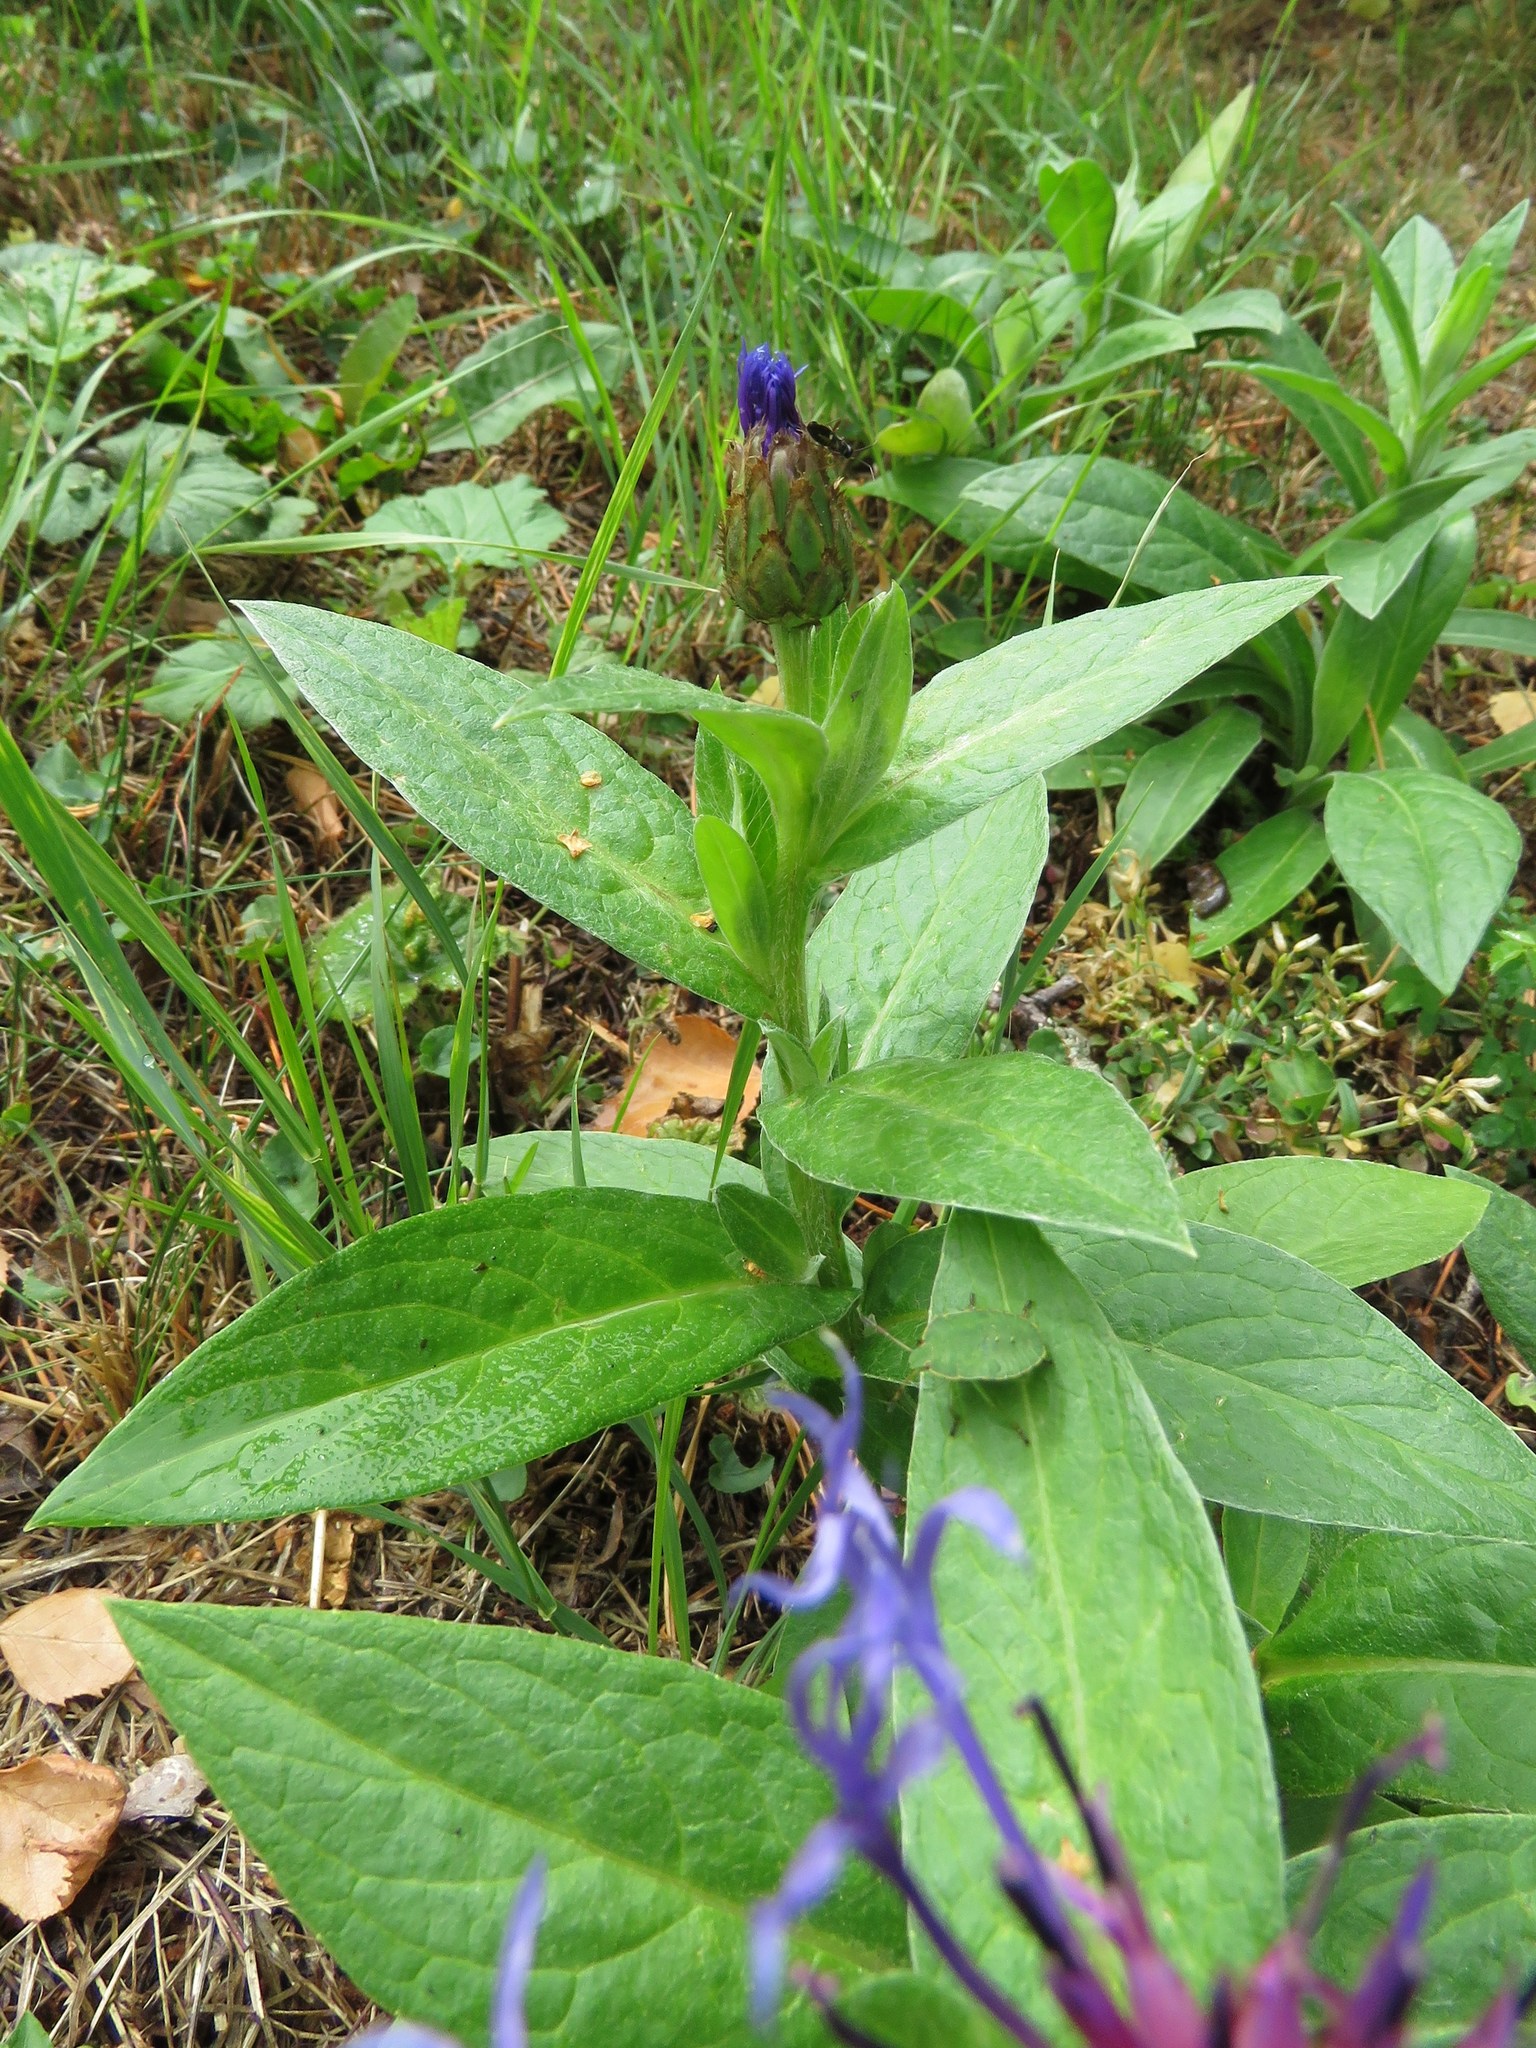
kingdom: Plantae
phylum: Tracheophyta
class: Magnoliopsida
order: Asterales
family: Asteraceae
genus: Centaurea
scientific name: Centaurea montana
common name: Perennial cornflower
